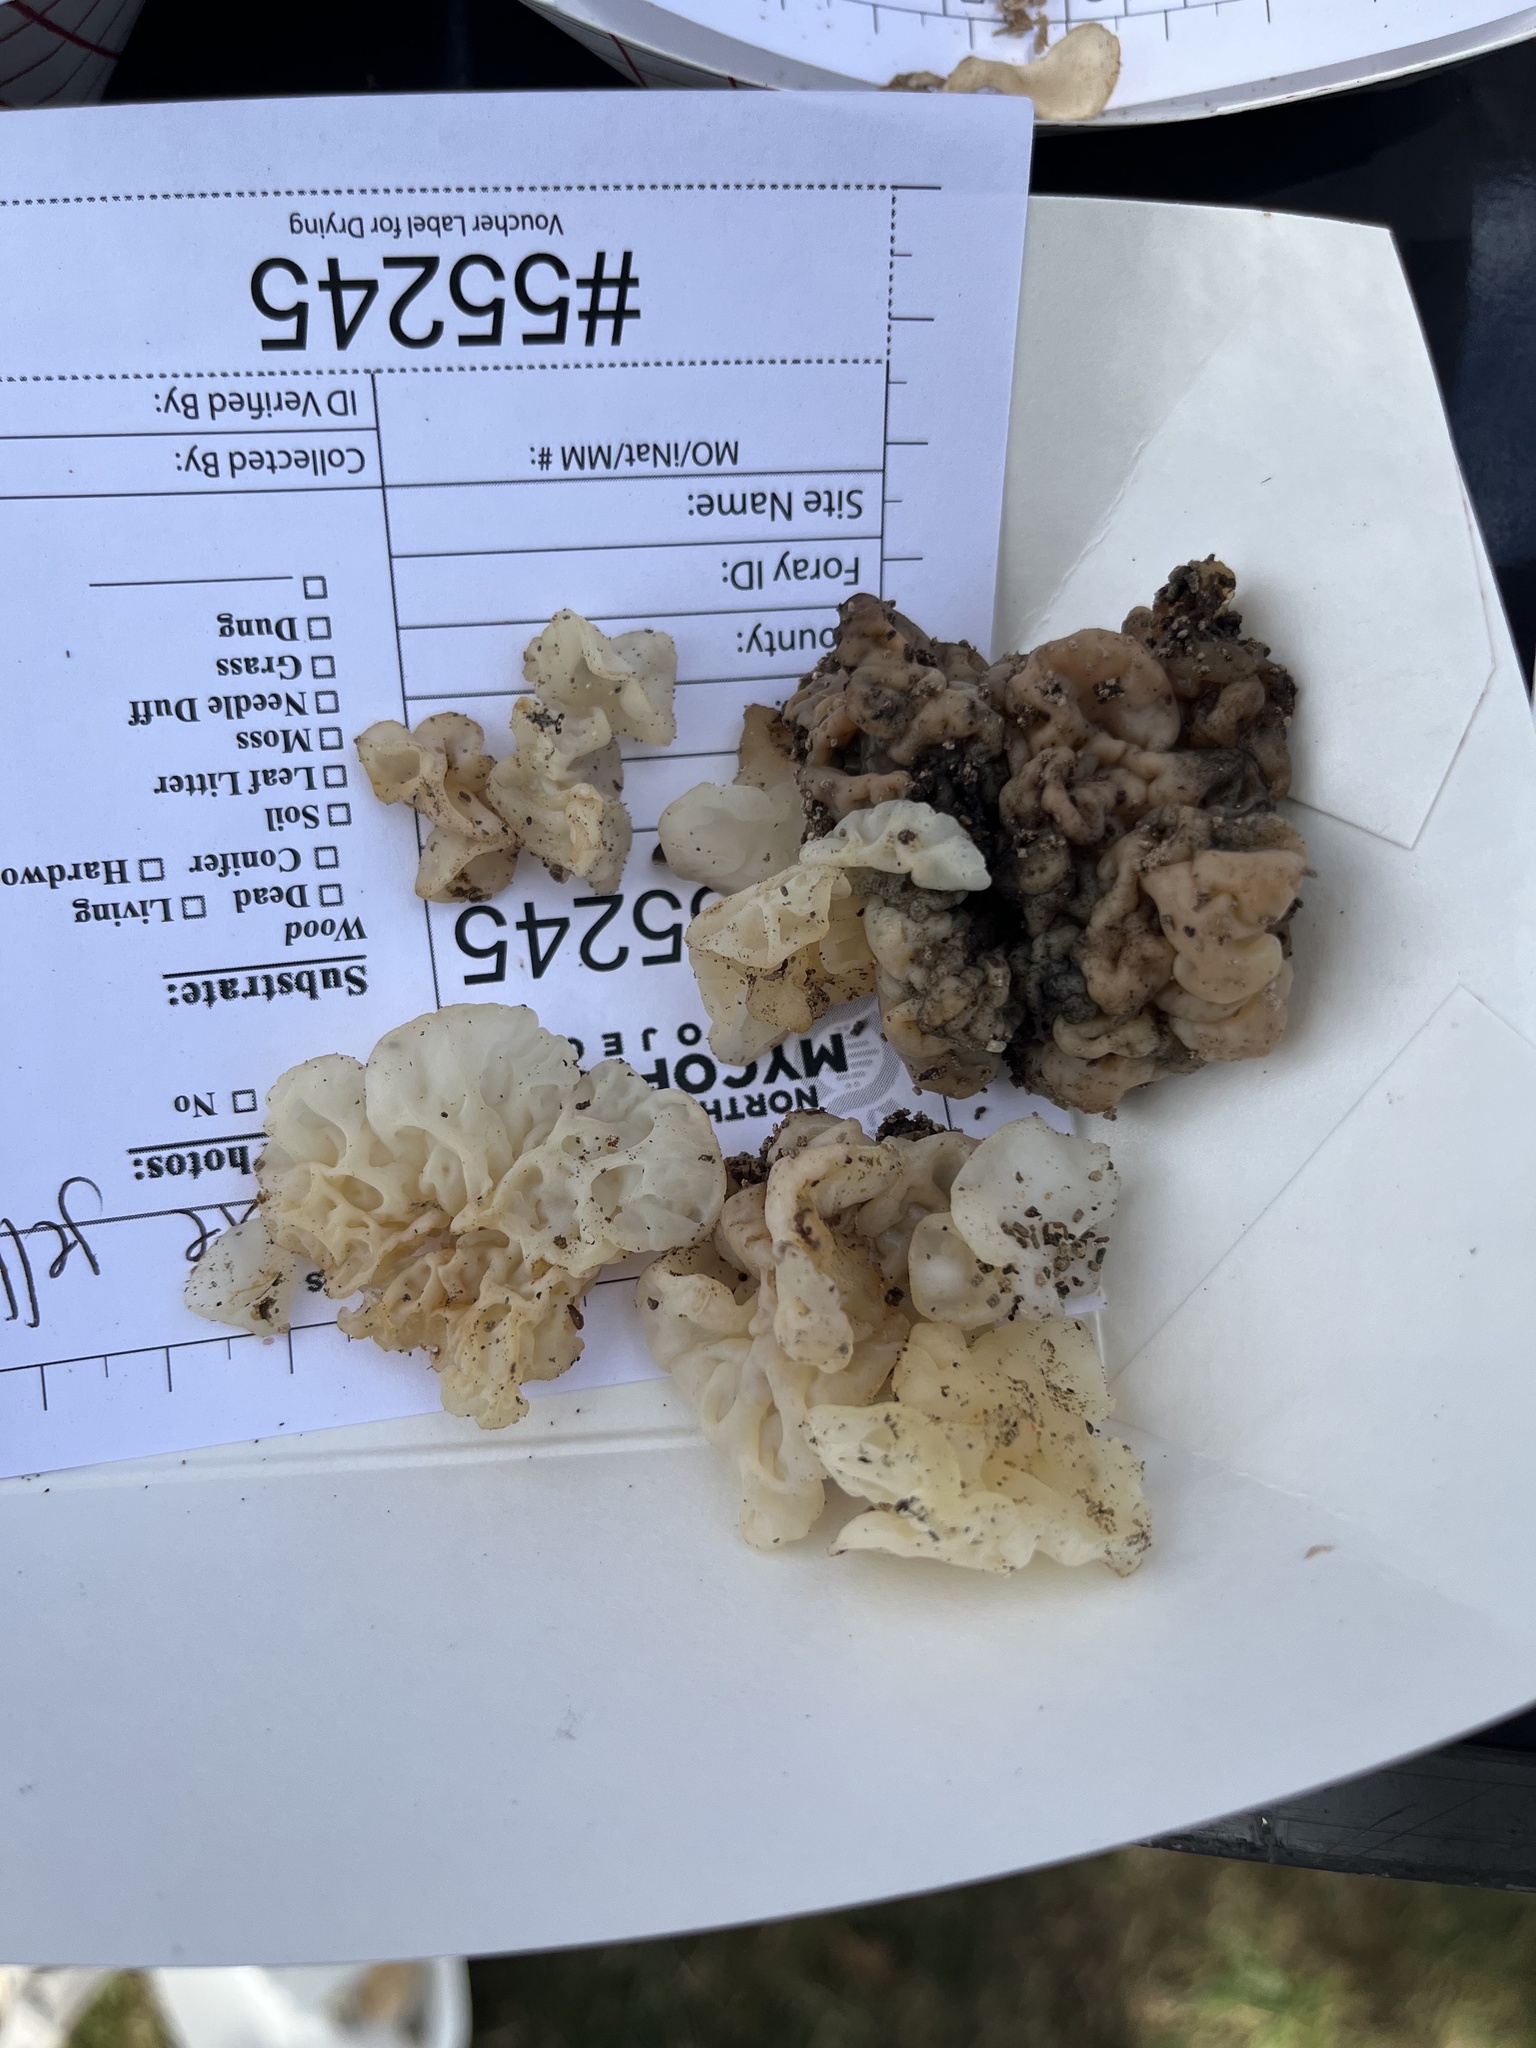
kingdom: Fungi
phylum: Basidiomycota
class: Agaricomycetes
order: Auriculariales
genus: Ductifera
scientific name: Ductifera pululahuana
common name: White jelly fungus
